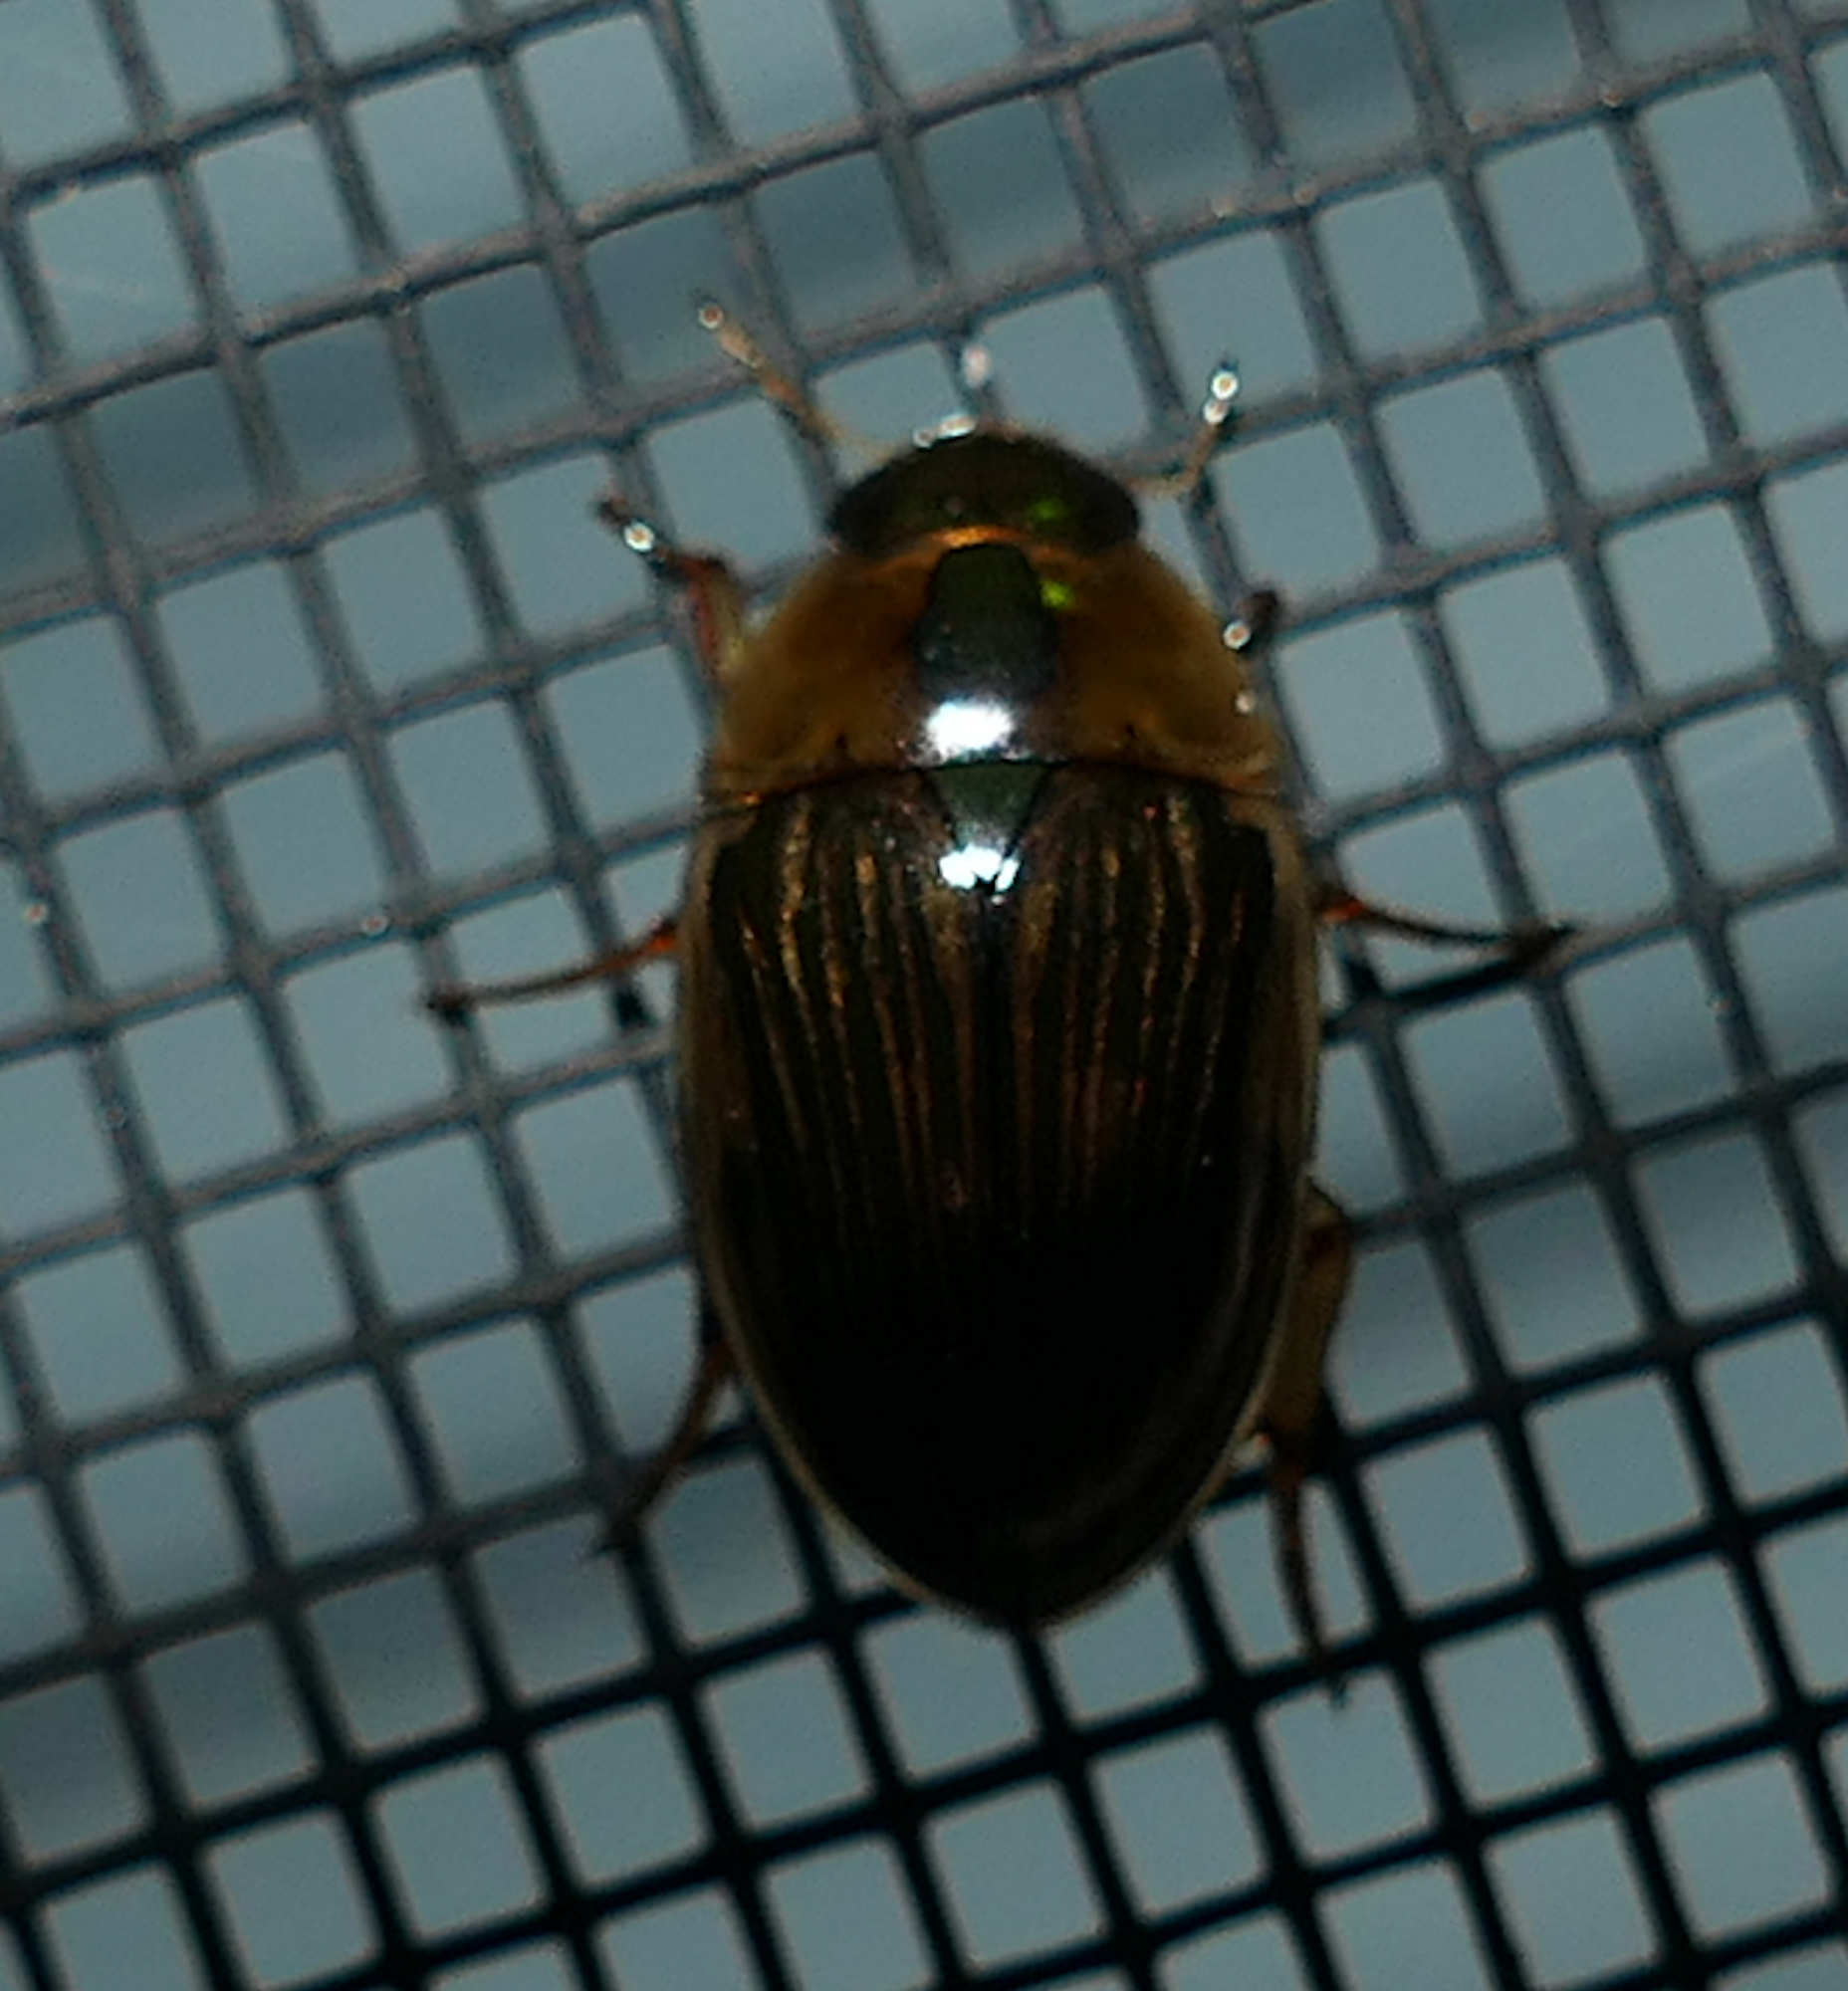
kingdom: Animalia
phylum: Arthropoda
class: Insecta
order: Coleoptera
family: Hydrophilidae
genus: Tropisternus
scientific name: Tropisternus collaris
